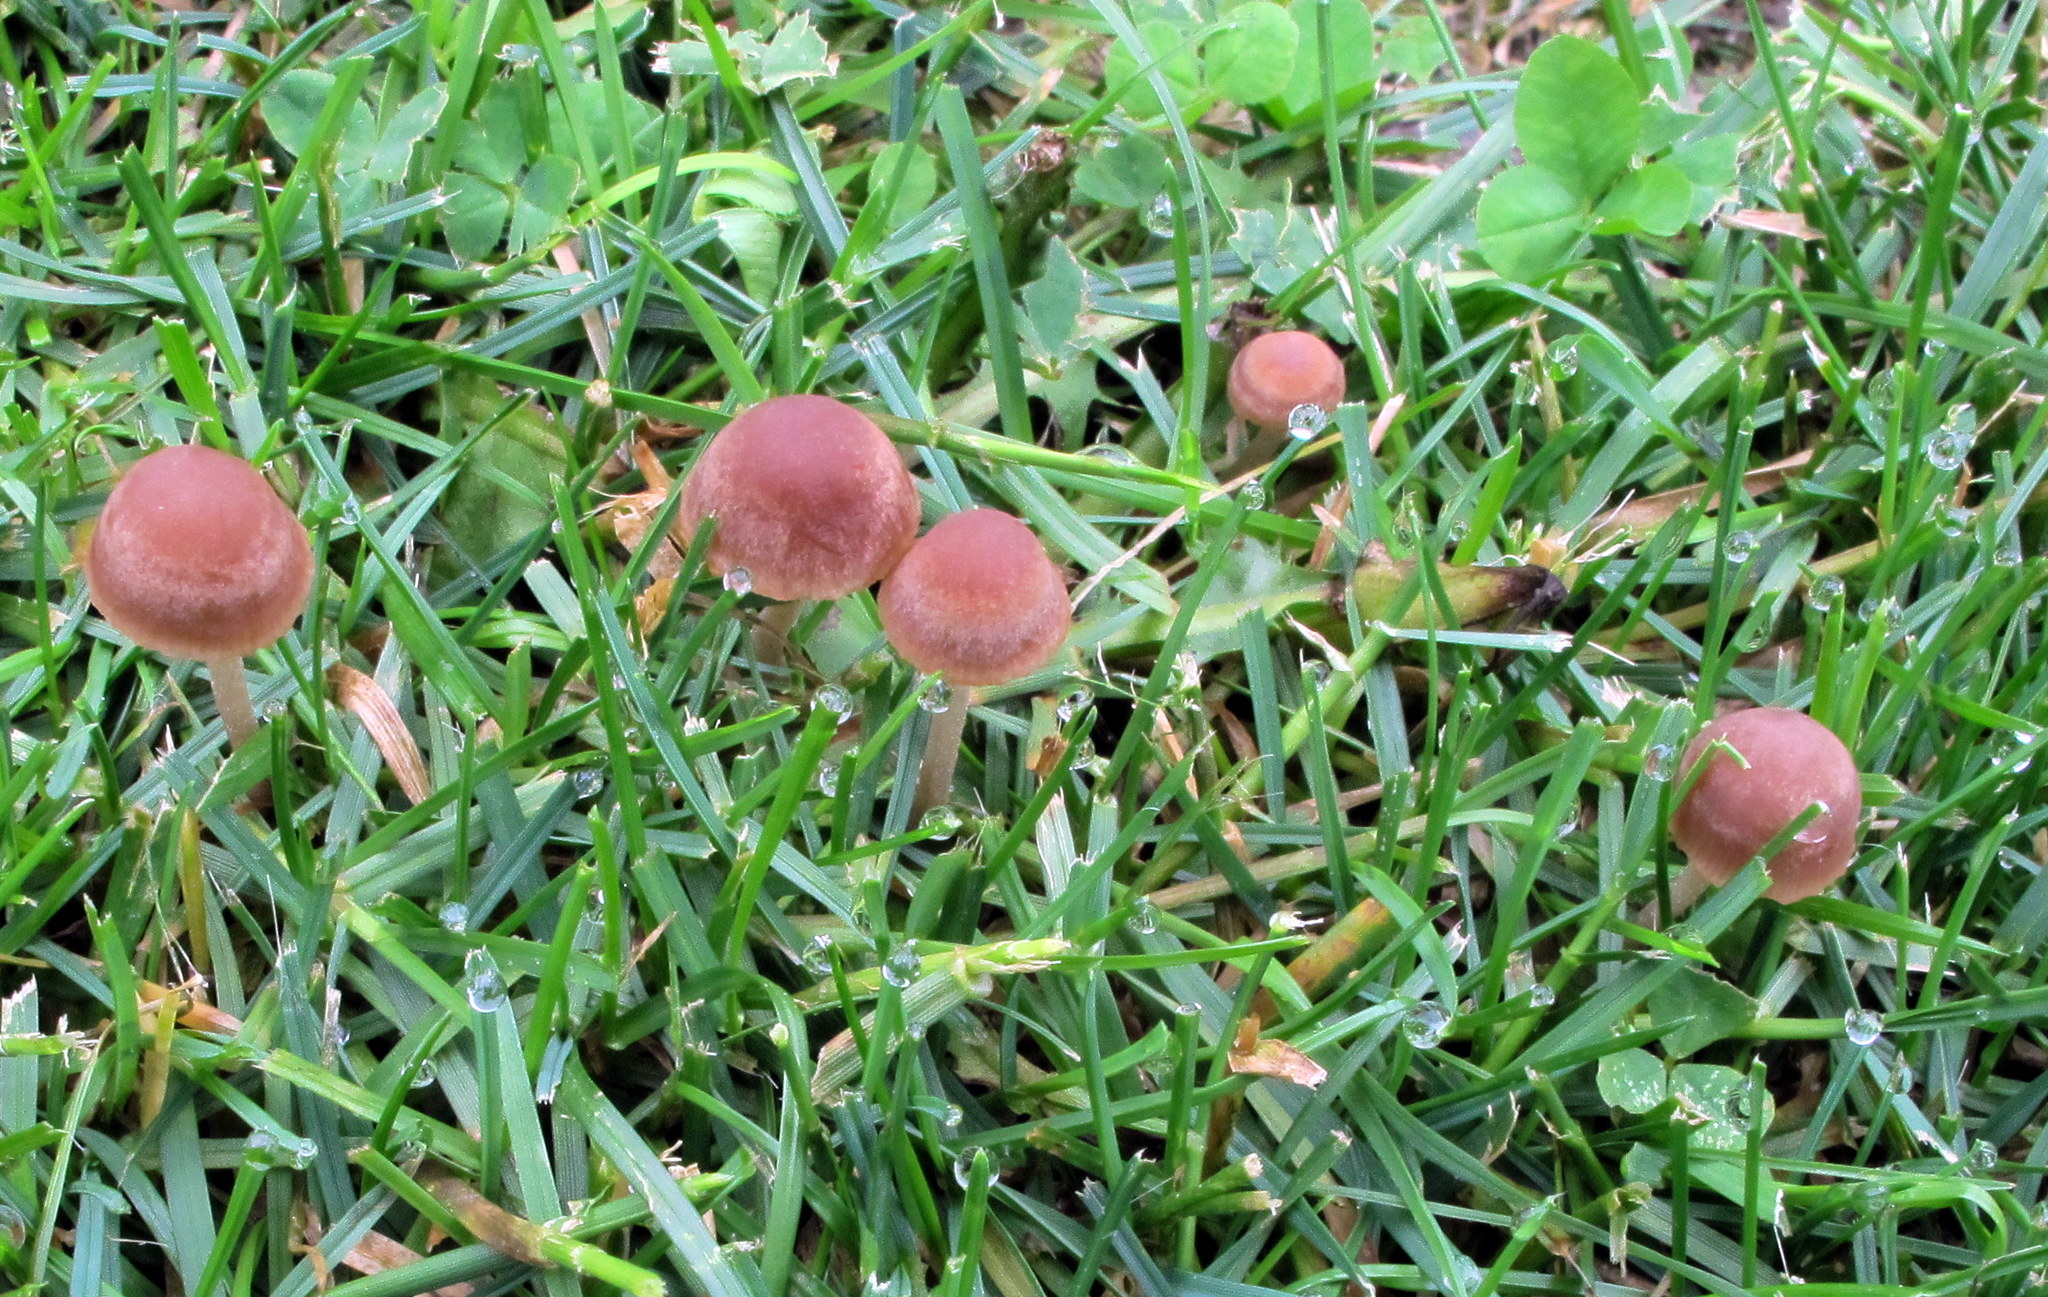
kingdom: Fungi
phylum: Basidiomycota
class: Agaricomycetes
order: Agaricales
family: Bolbitiaceae
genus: Panaeolina
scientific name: Panaeolina foenisecii
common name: Brown hay cap
